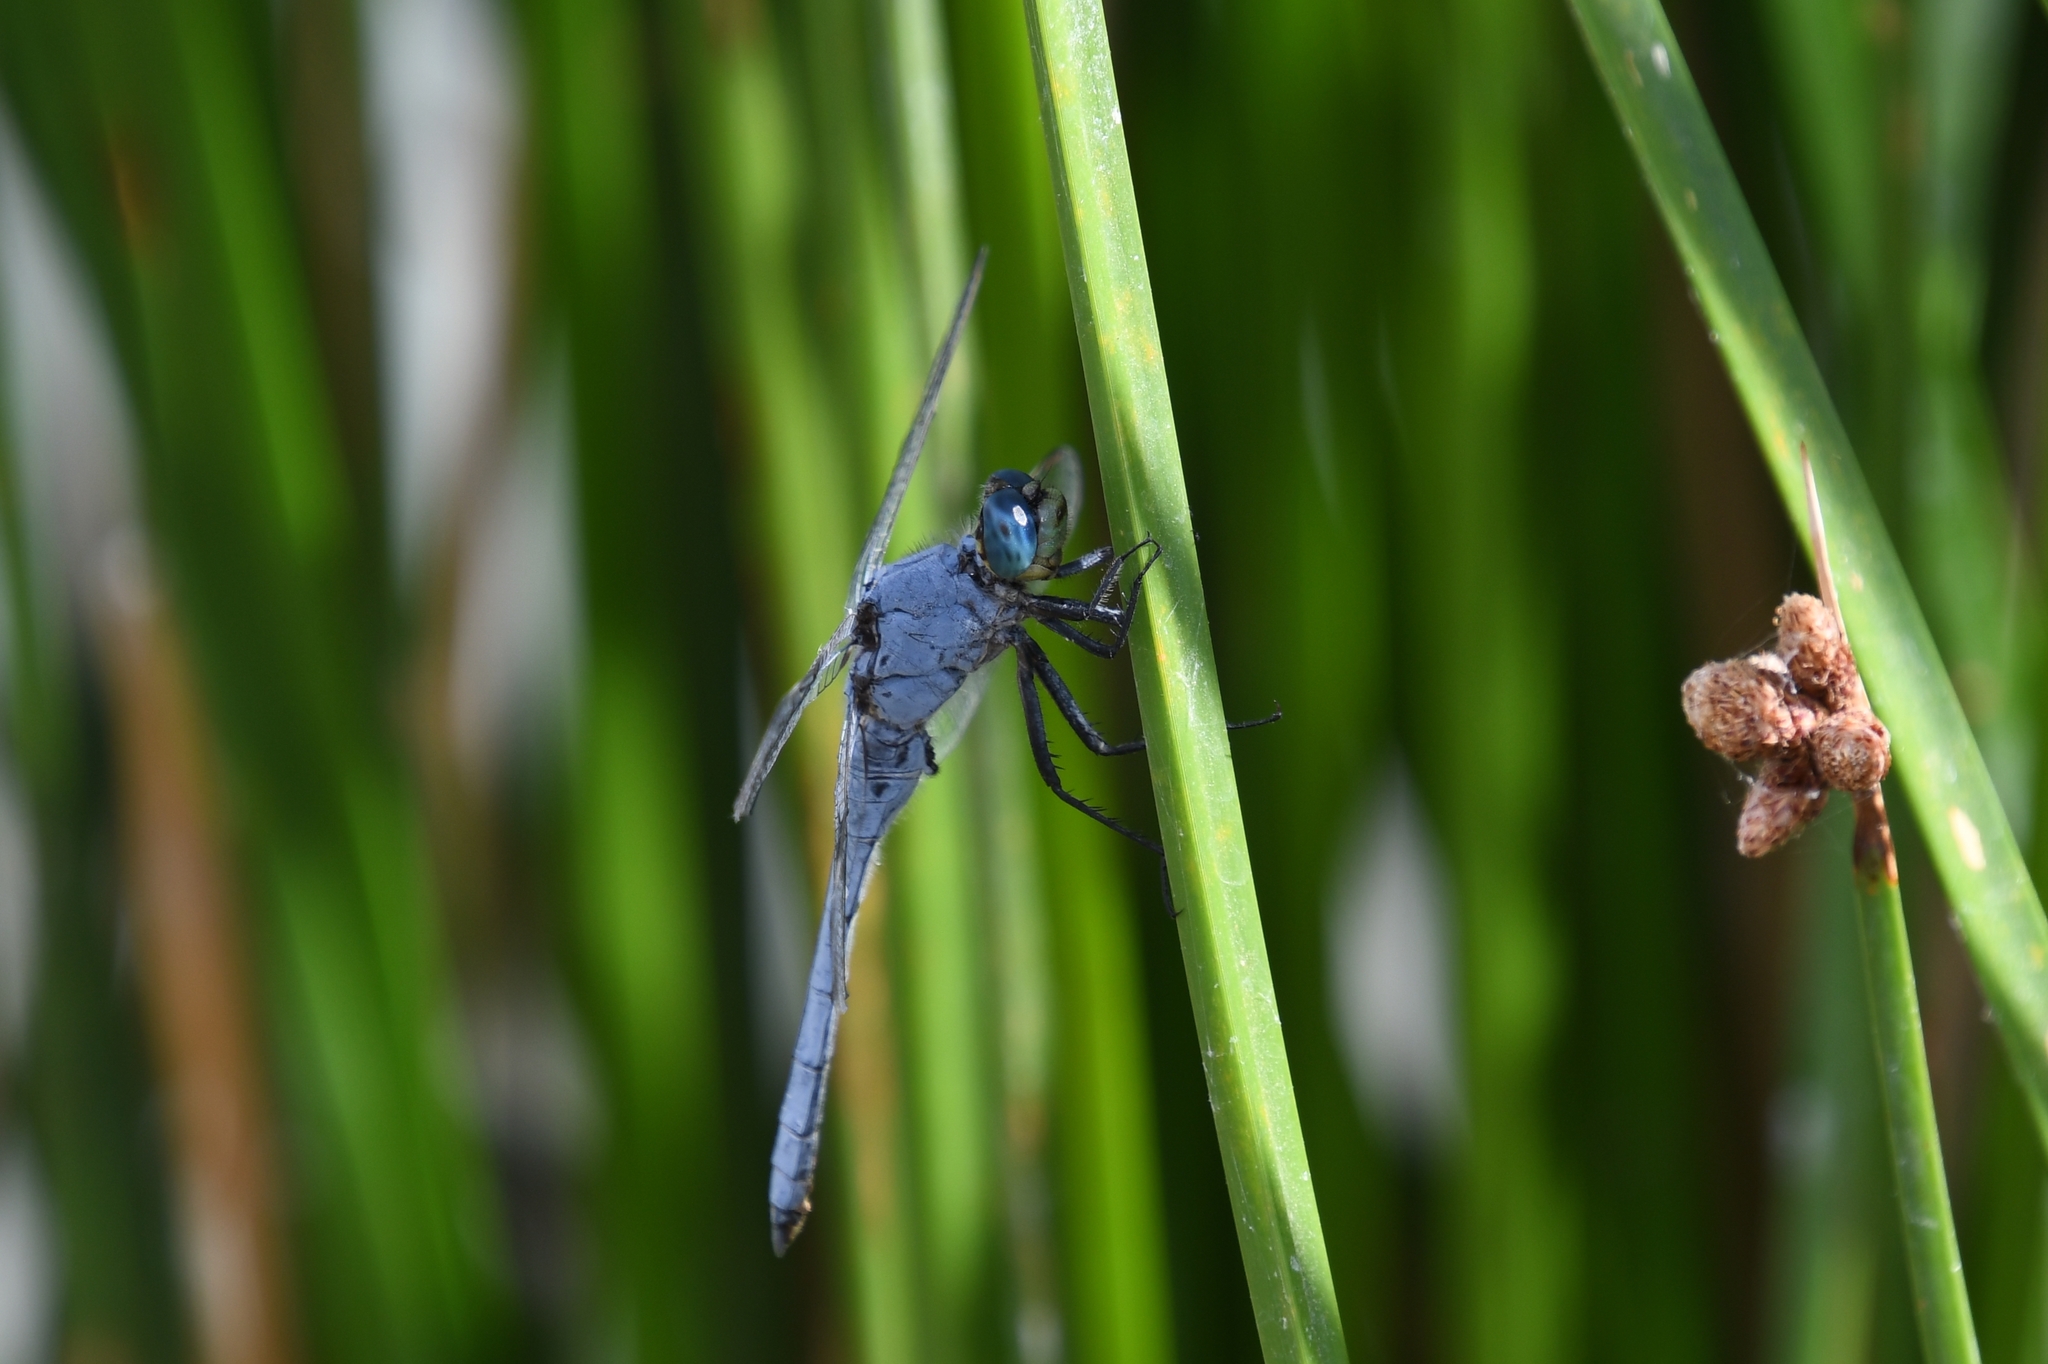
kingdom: Animalia
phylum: Arthropoda
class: Insecta
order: Odonata
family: Libellulidae
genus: Erythemis
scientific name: Erythemis collocata
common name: Western pondhawk
